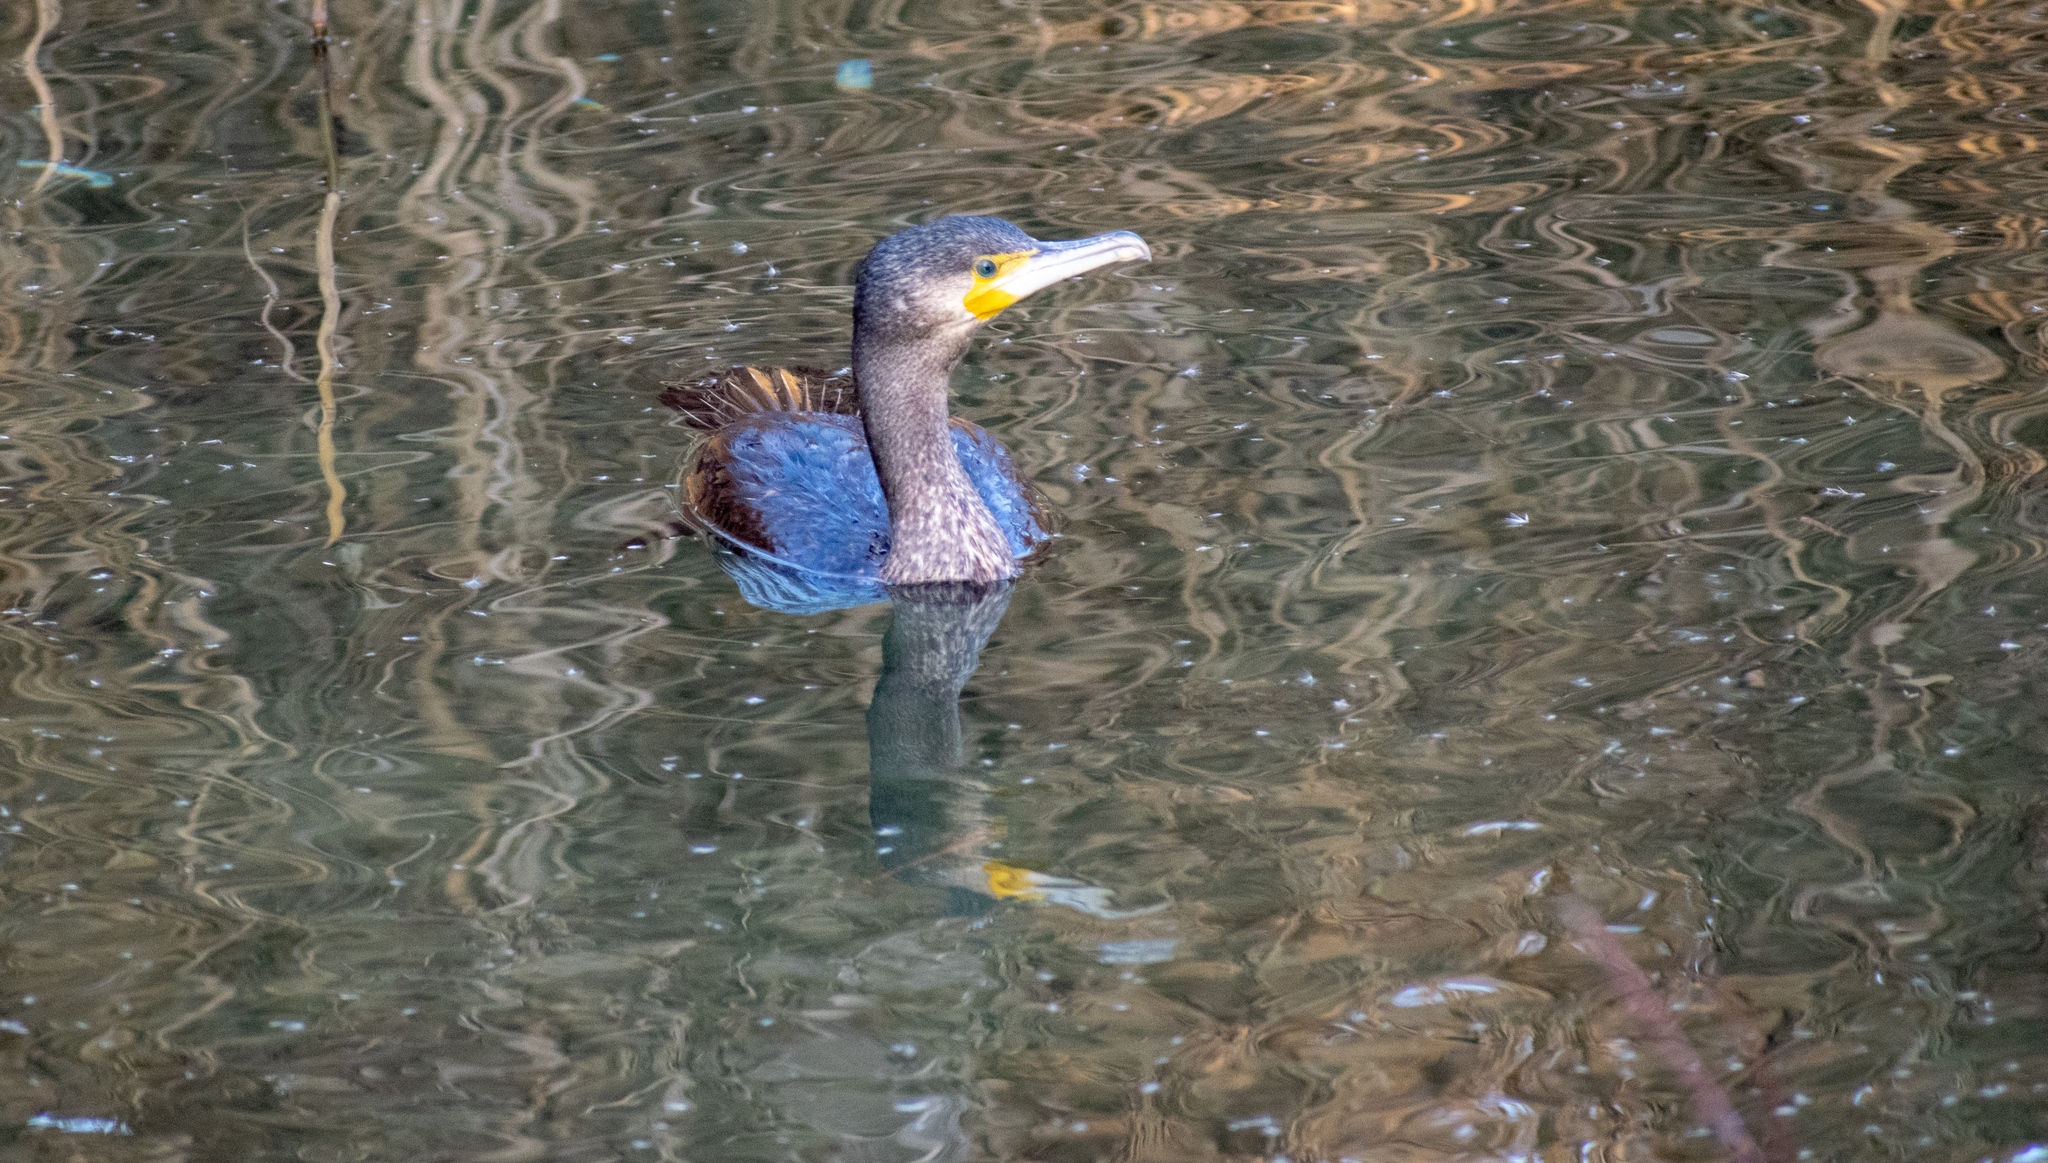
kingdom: Animalia
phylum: Chordata
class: Aves
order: Suliformes
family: Phalacrocoracidae
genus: Phalacrocorax
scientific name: Phalacrocorax carbo
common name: Great cormorant
